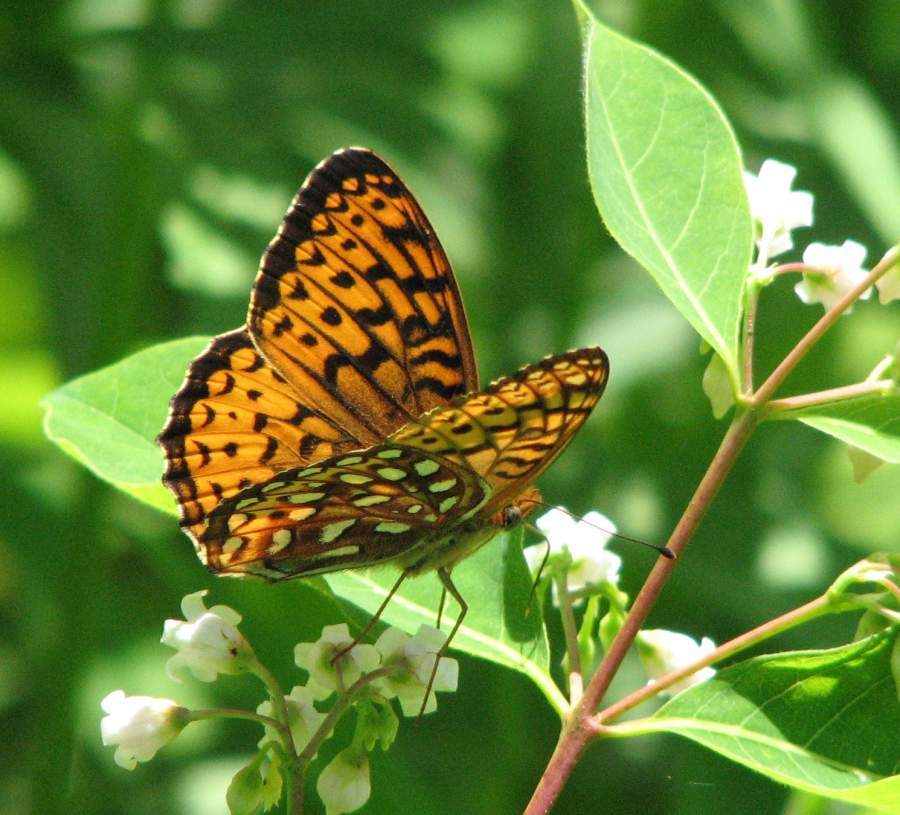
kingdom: Animalia
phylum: Arthropoda
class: Insecta
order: Lepidoptera
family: Nymphalidae
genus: Speyeria
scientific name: Speyeria atlantis
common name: Atlantis fritillary
